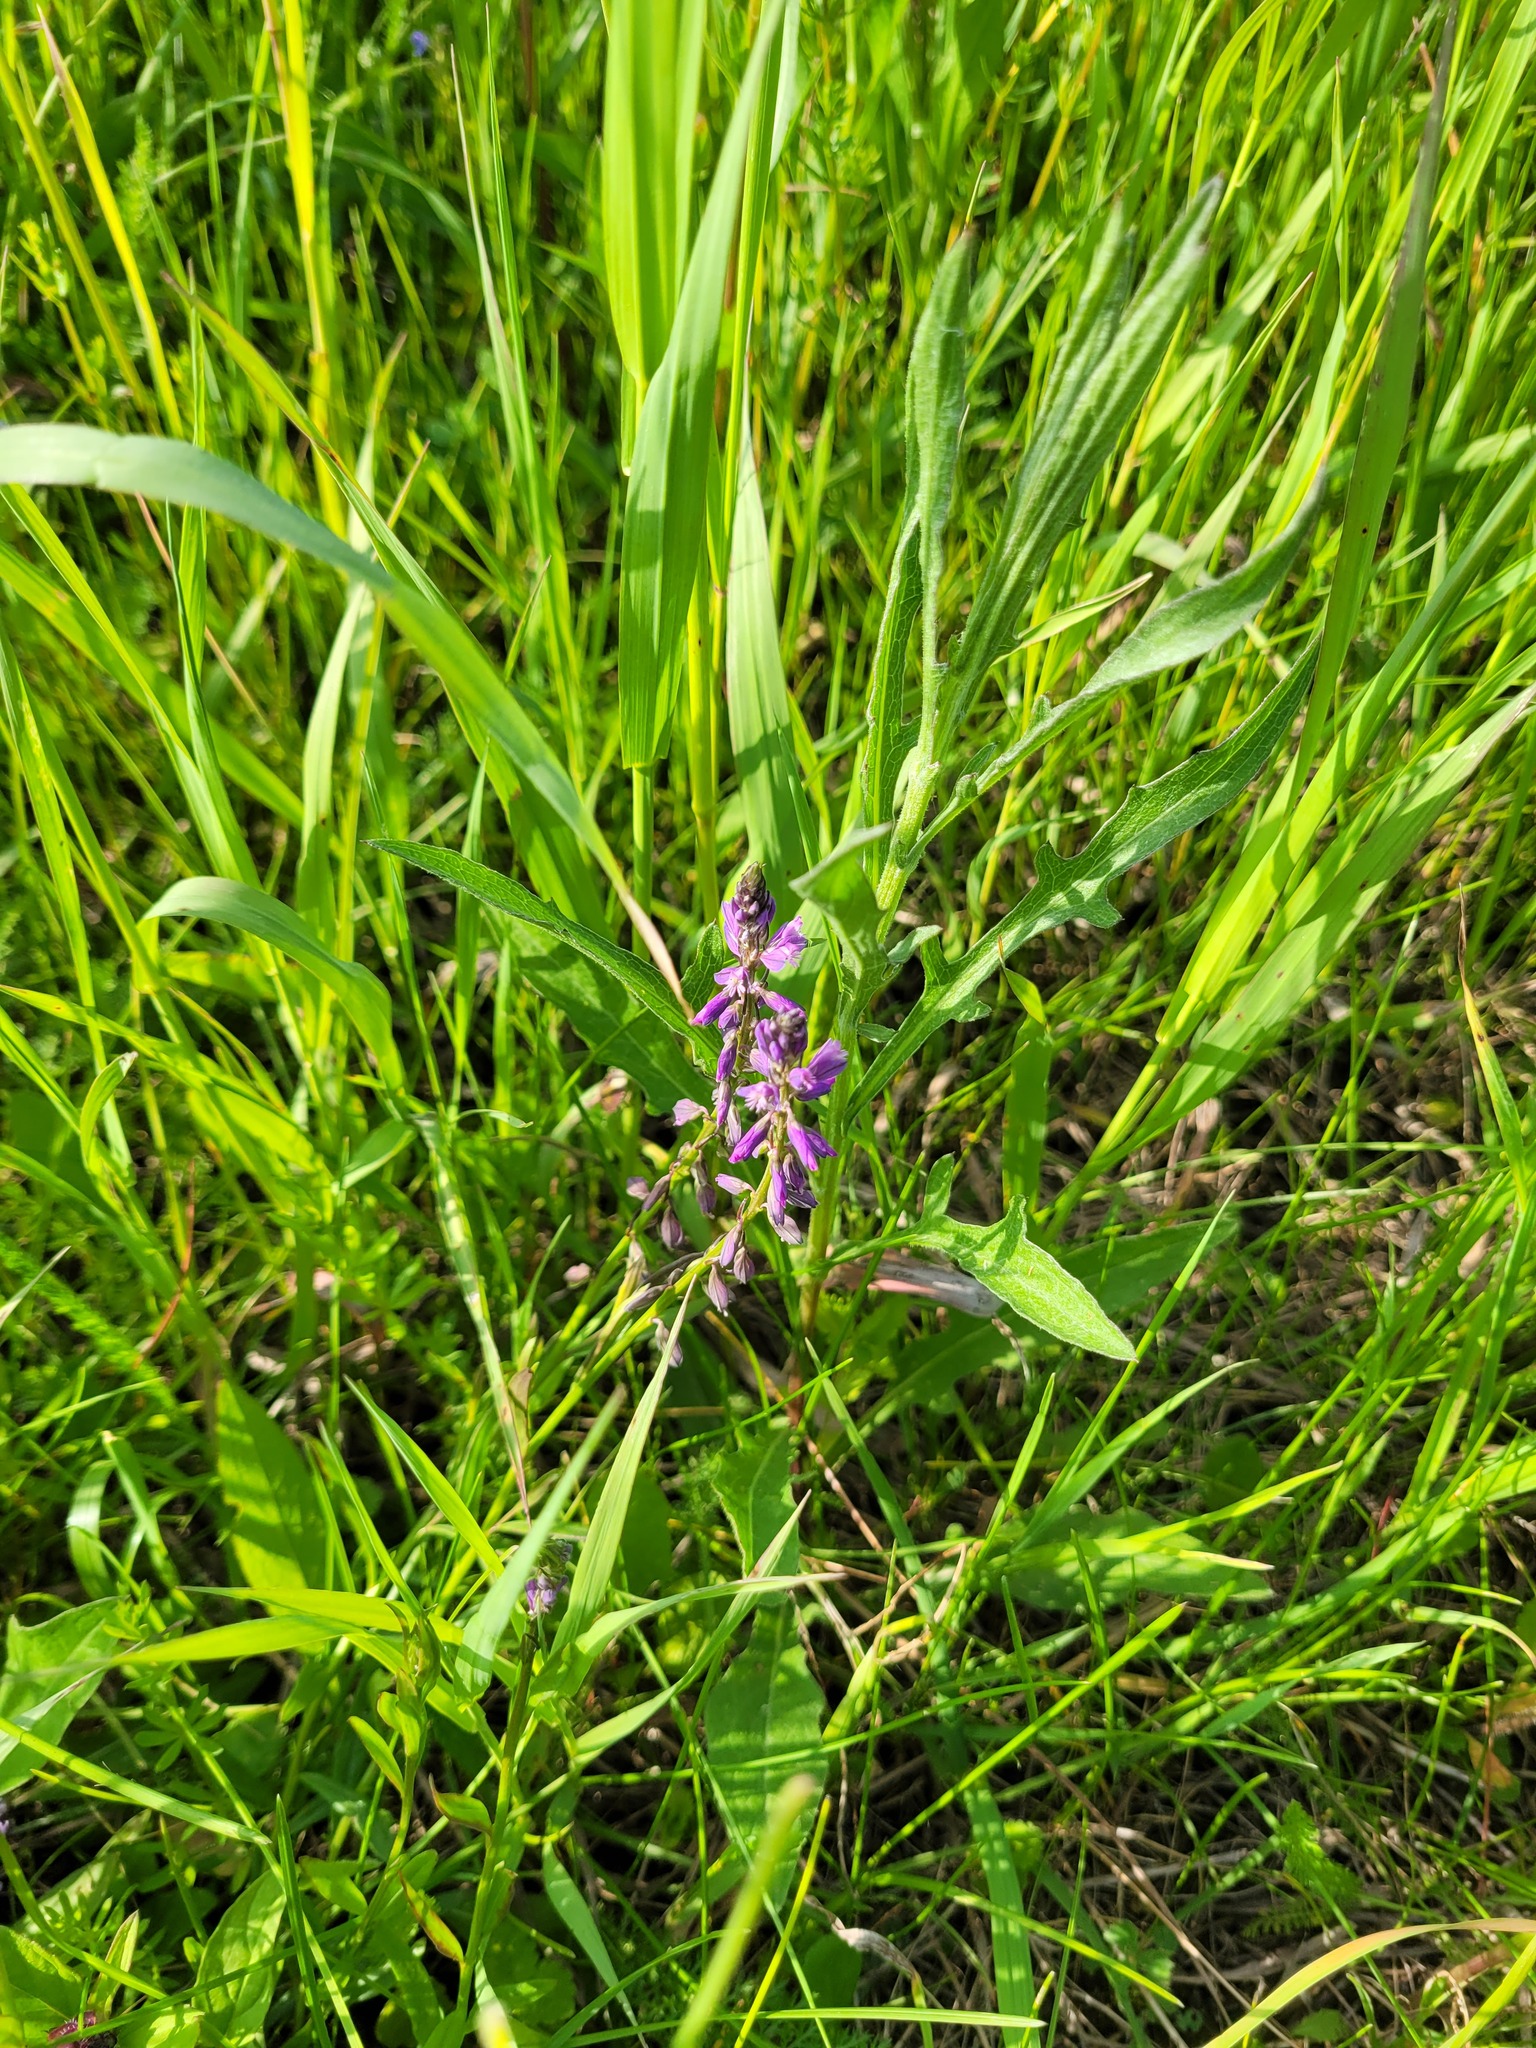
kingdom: Plantae
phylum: Tracheophyta
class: Magnoliopsida
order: Fabales
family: Polygalaceae
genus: Polygala
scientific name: Polygala comosa
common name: Tufted milkwort
